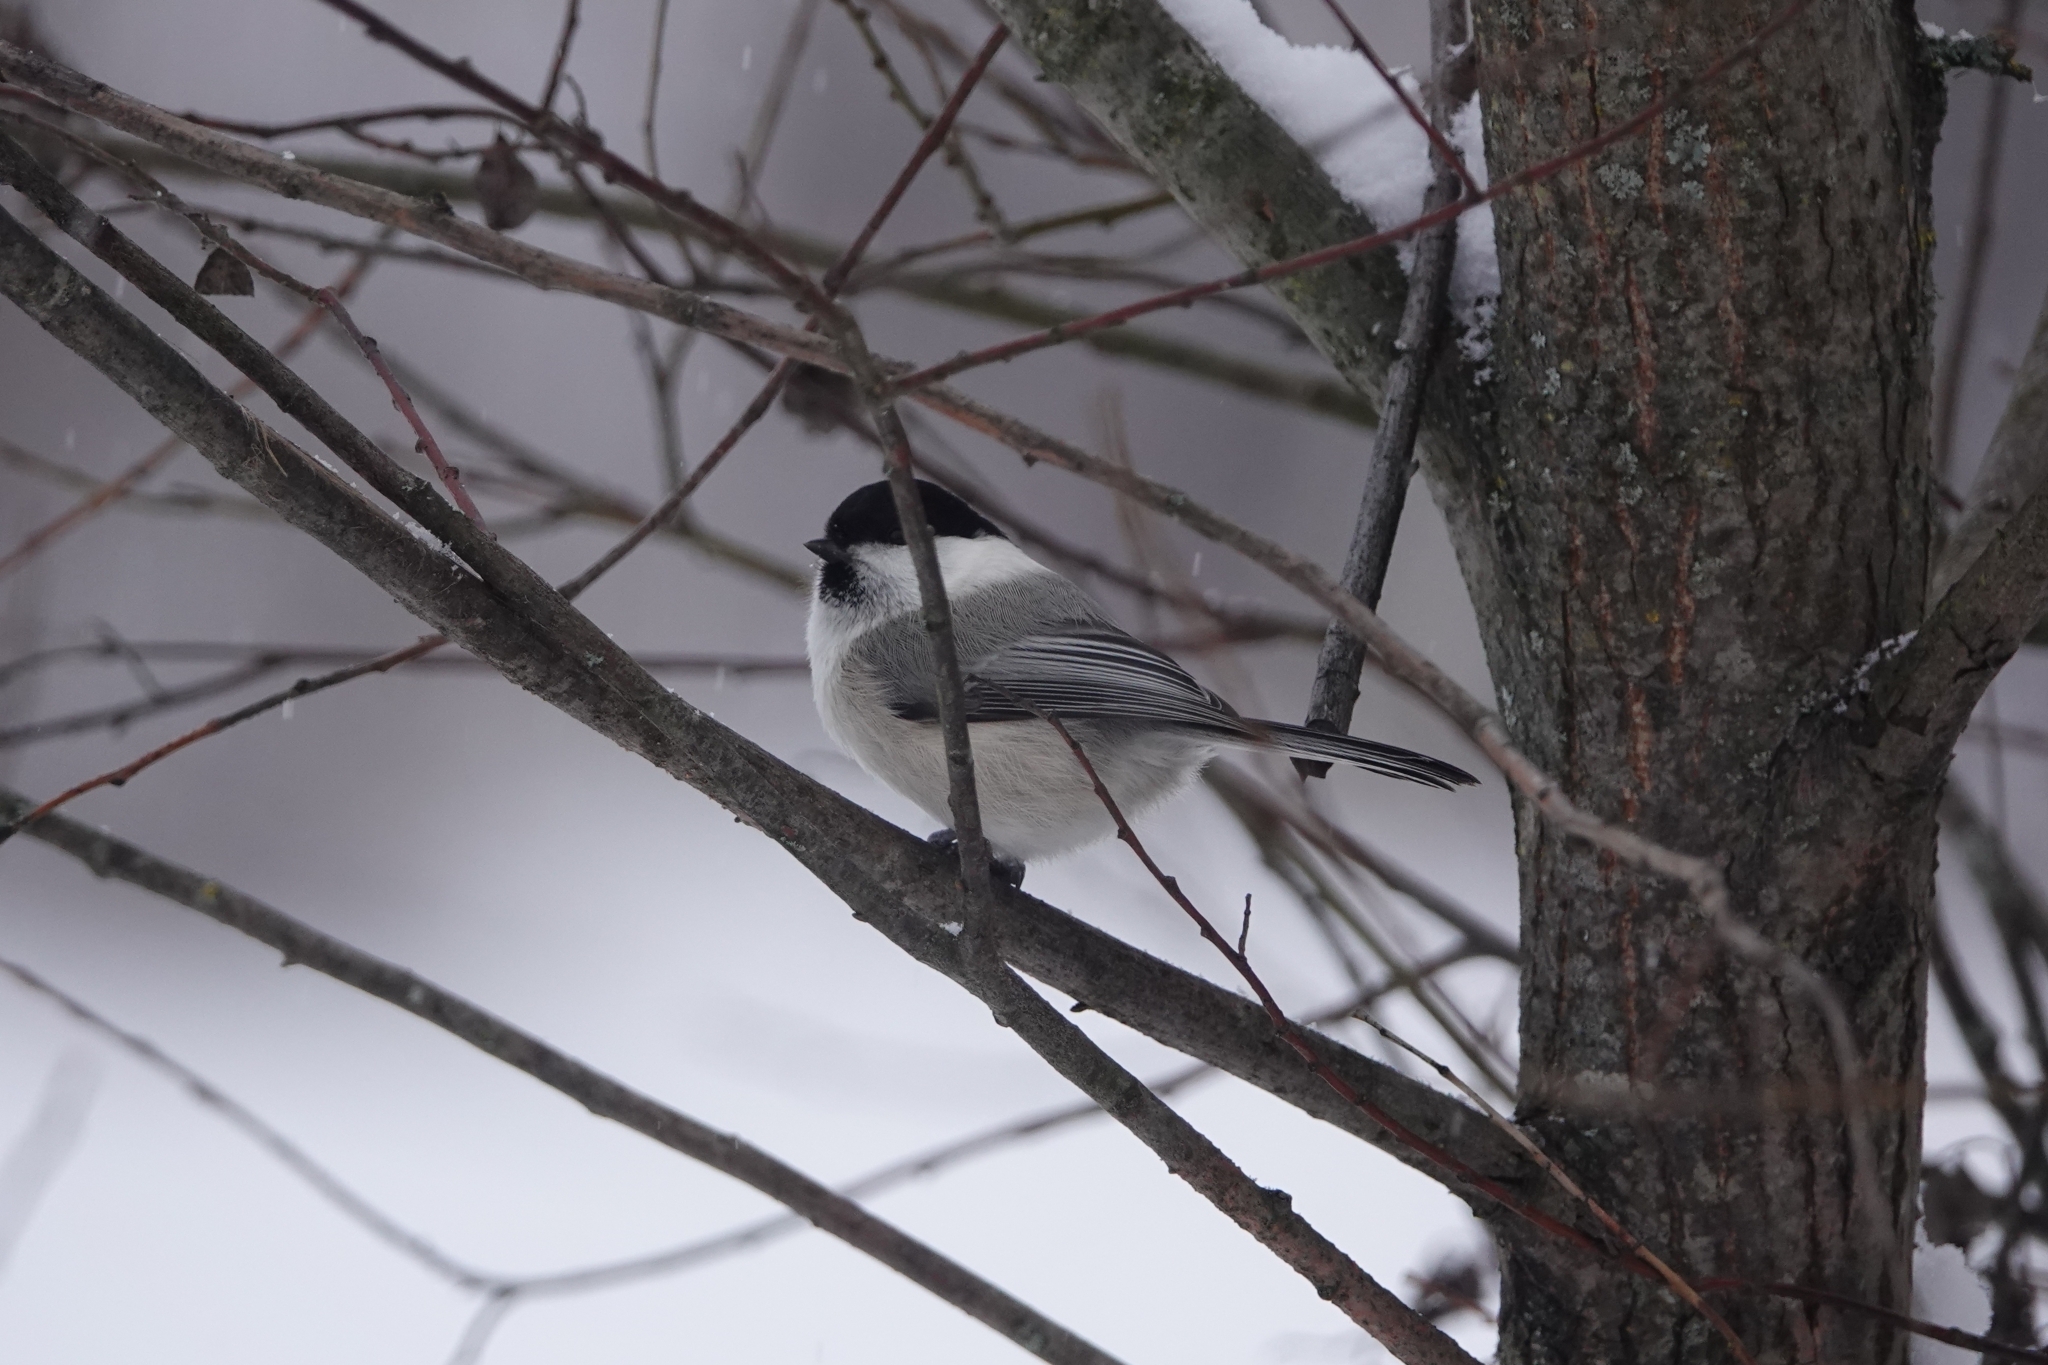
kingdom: Animalia
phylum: Chordata
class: Aves
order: Passeriformes
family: Paridae
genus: Poecile
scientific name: Poecile montanus
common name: Willow tit
